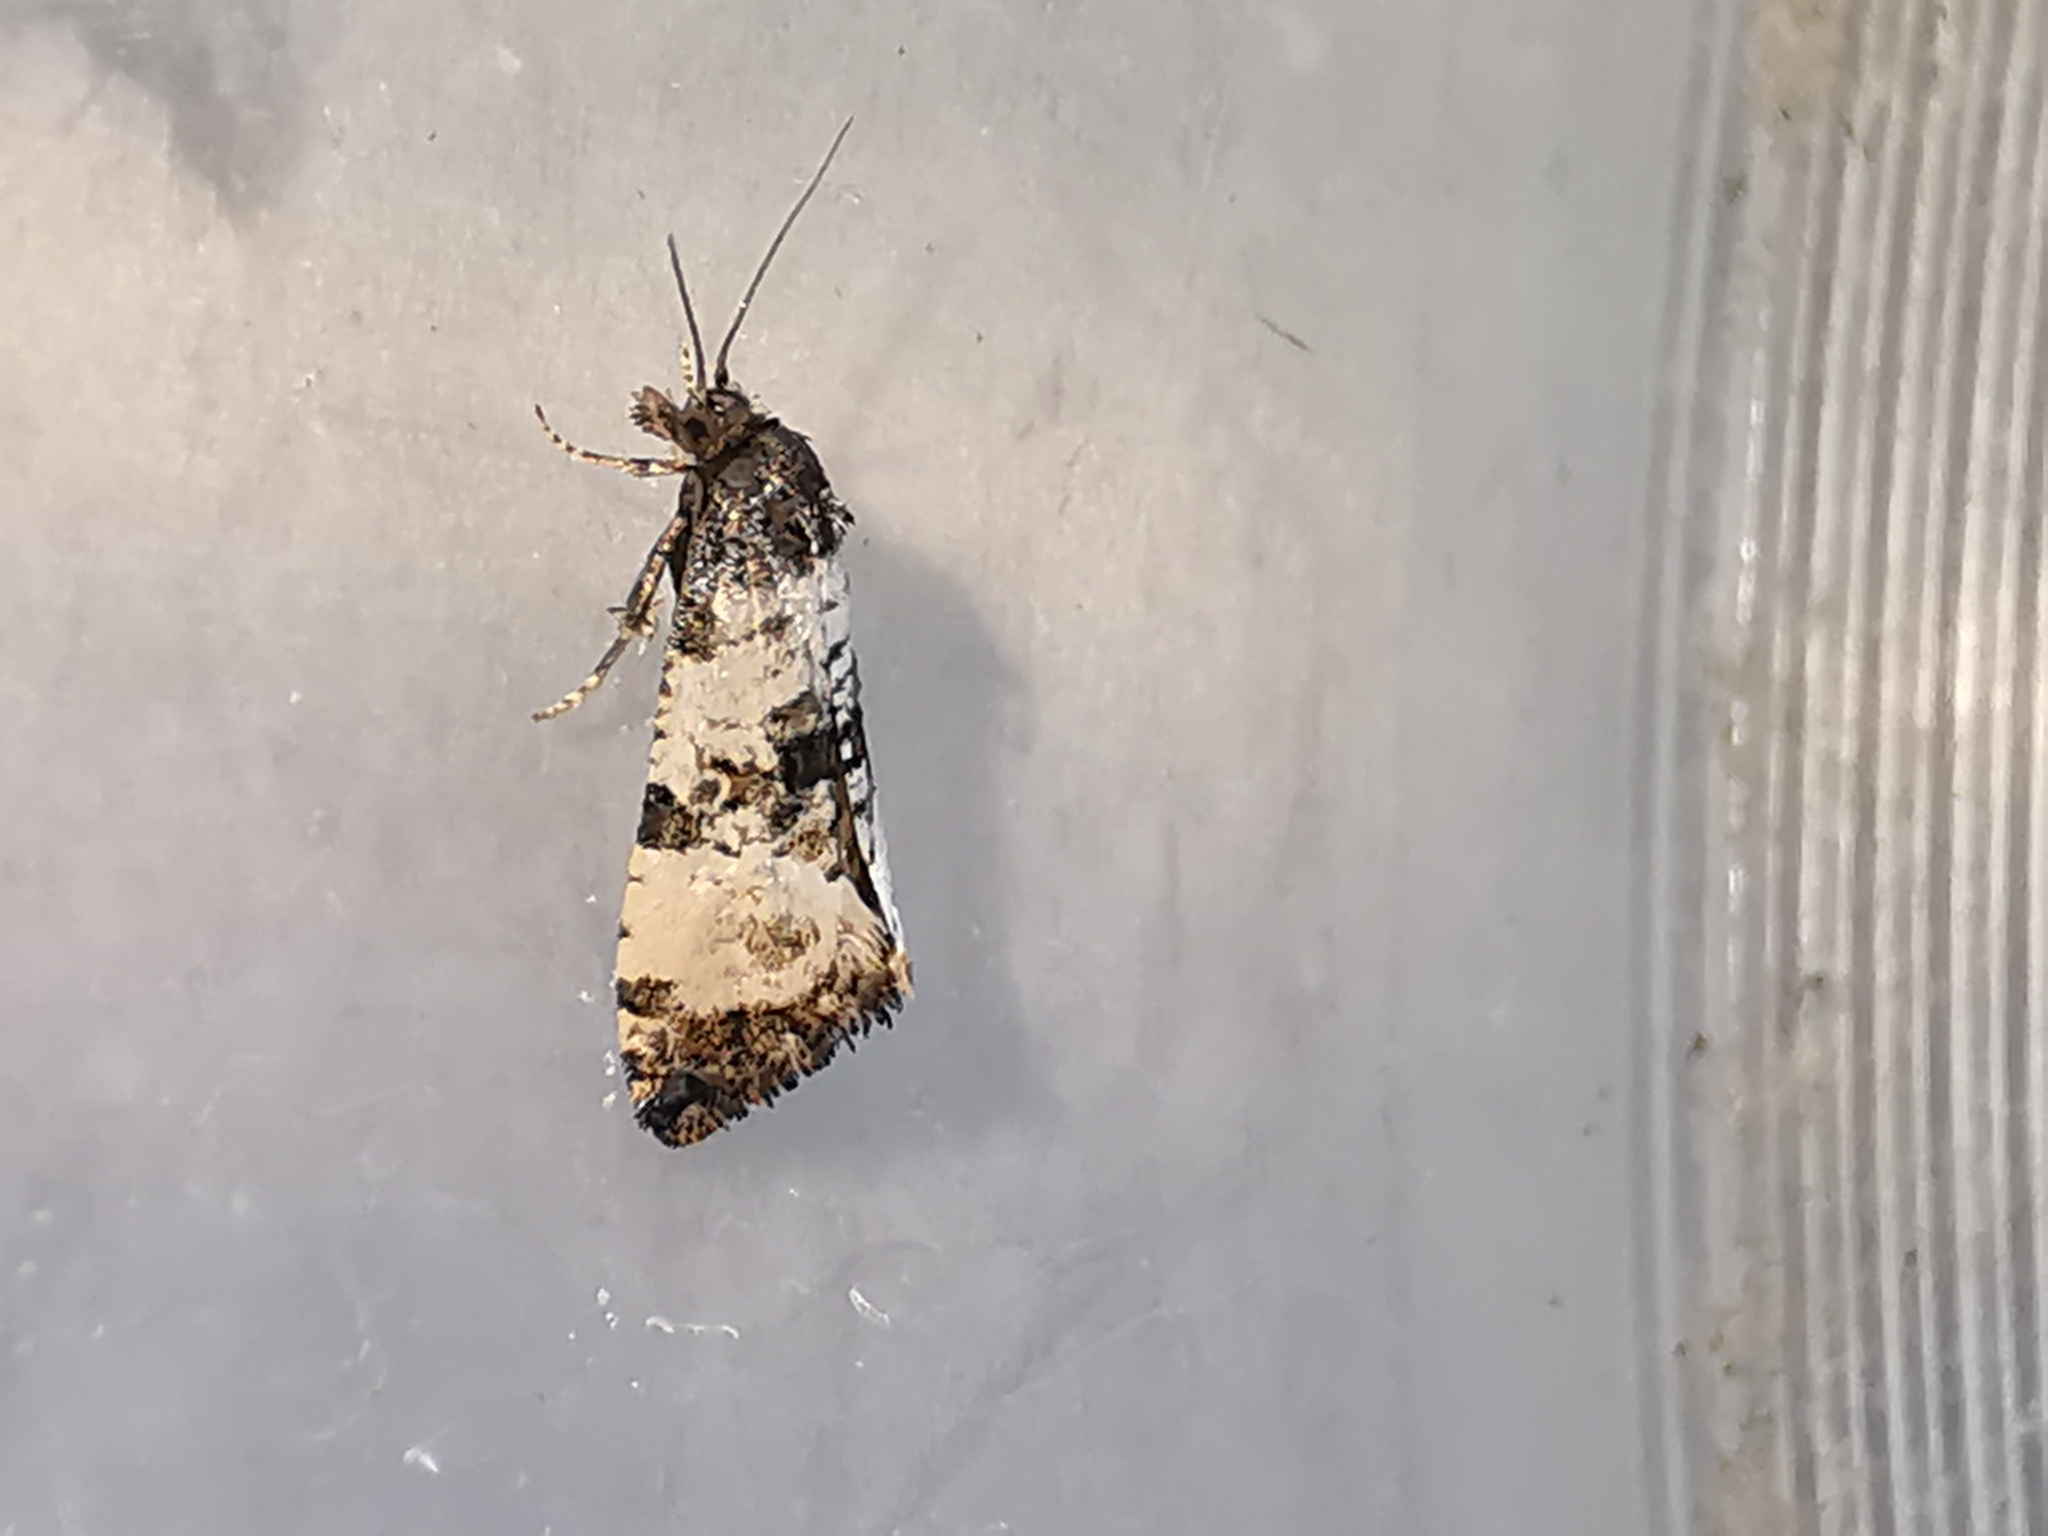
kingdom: Animalia
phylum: Arthropoda
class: Insecta
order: Lepidoptera
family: Tortricidae
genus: Cochylis
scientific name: Cochylis atricapitana
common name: Tortricid moth
